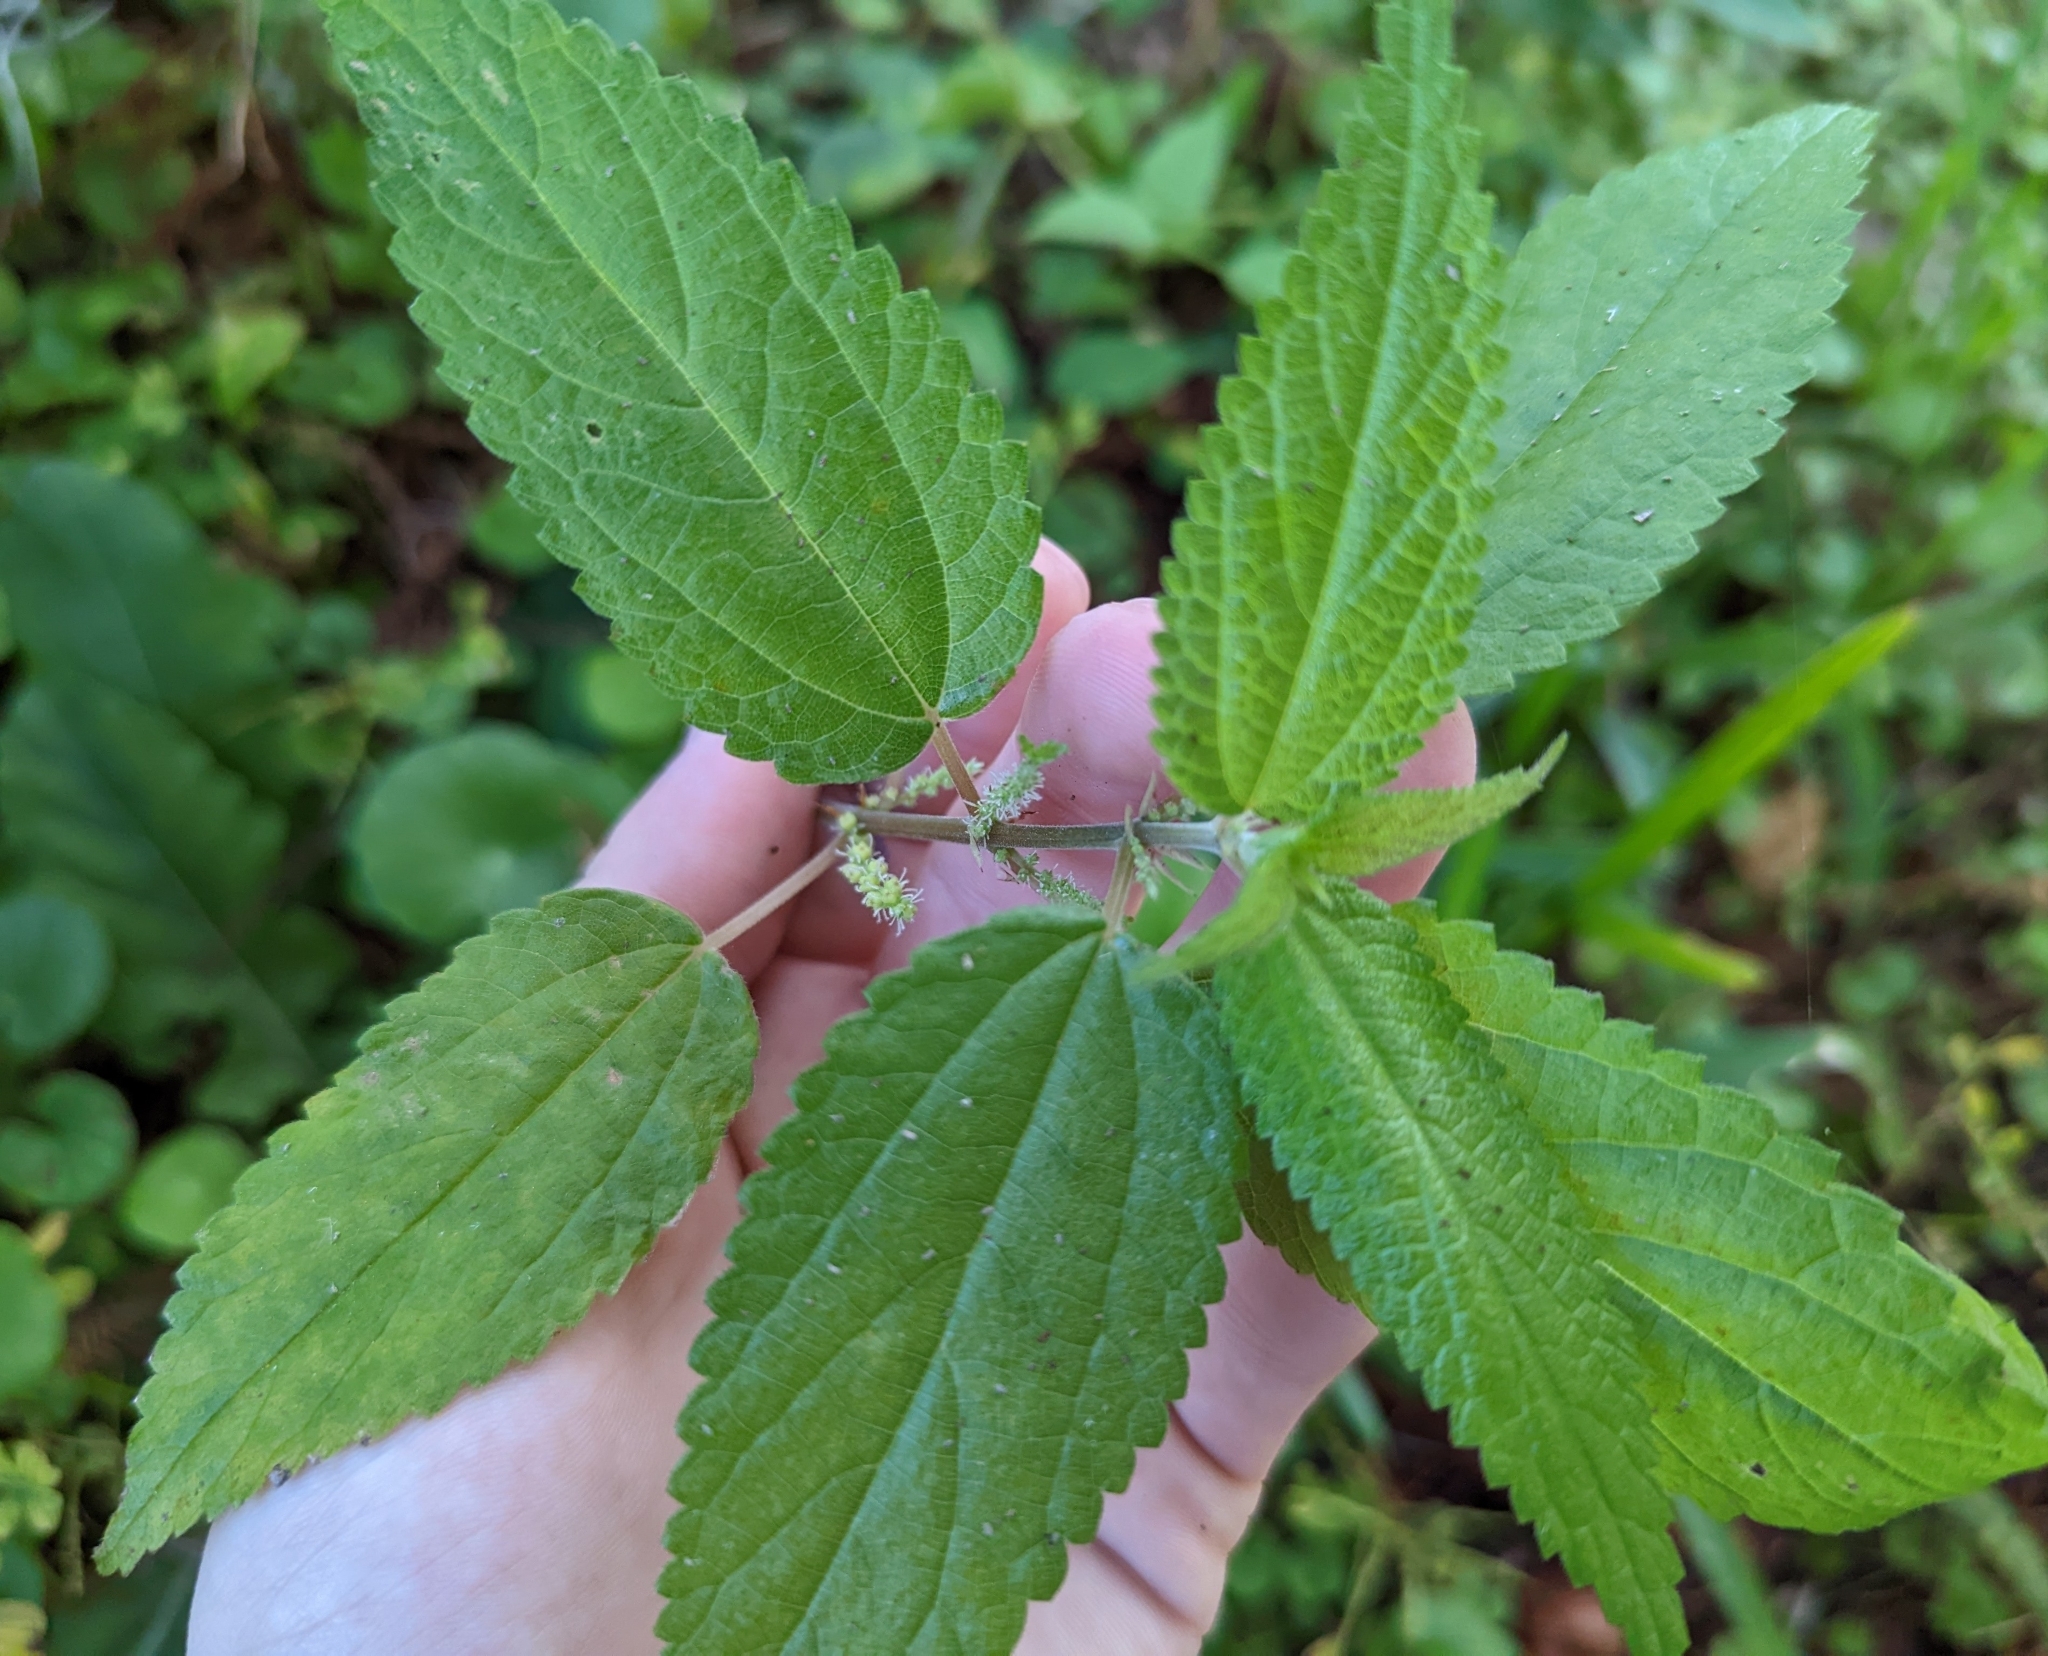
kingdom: Plantae
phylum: Tracheophyta
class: Magnoliopsida
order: Rosales
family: Urticaceae
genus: Boehmeria
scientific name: Boehmeria cylindrica
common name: Bog-hemp
